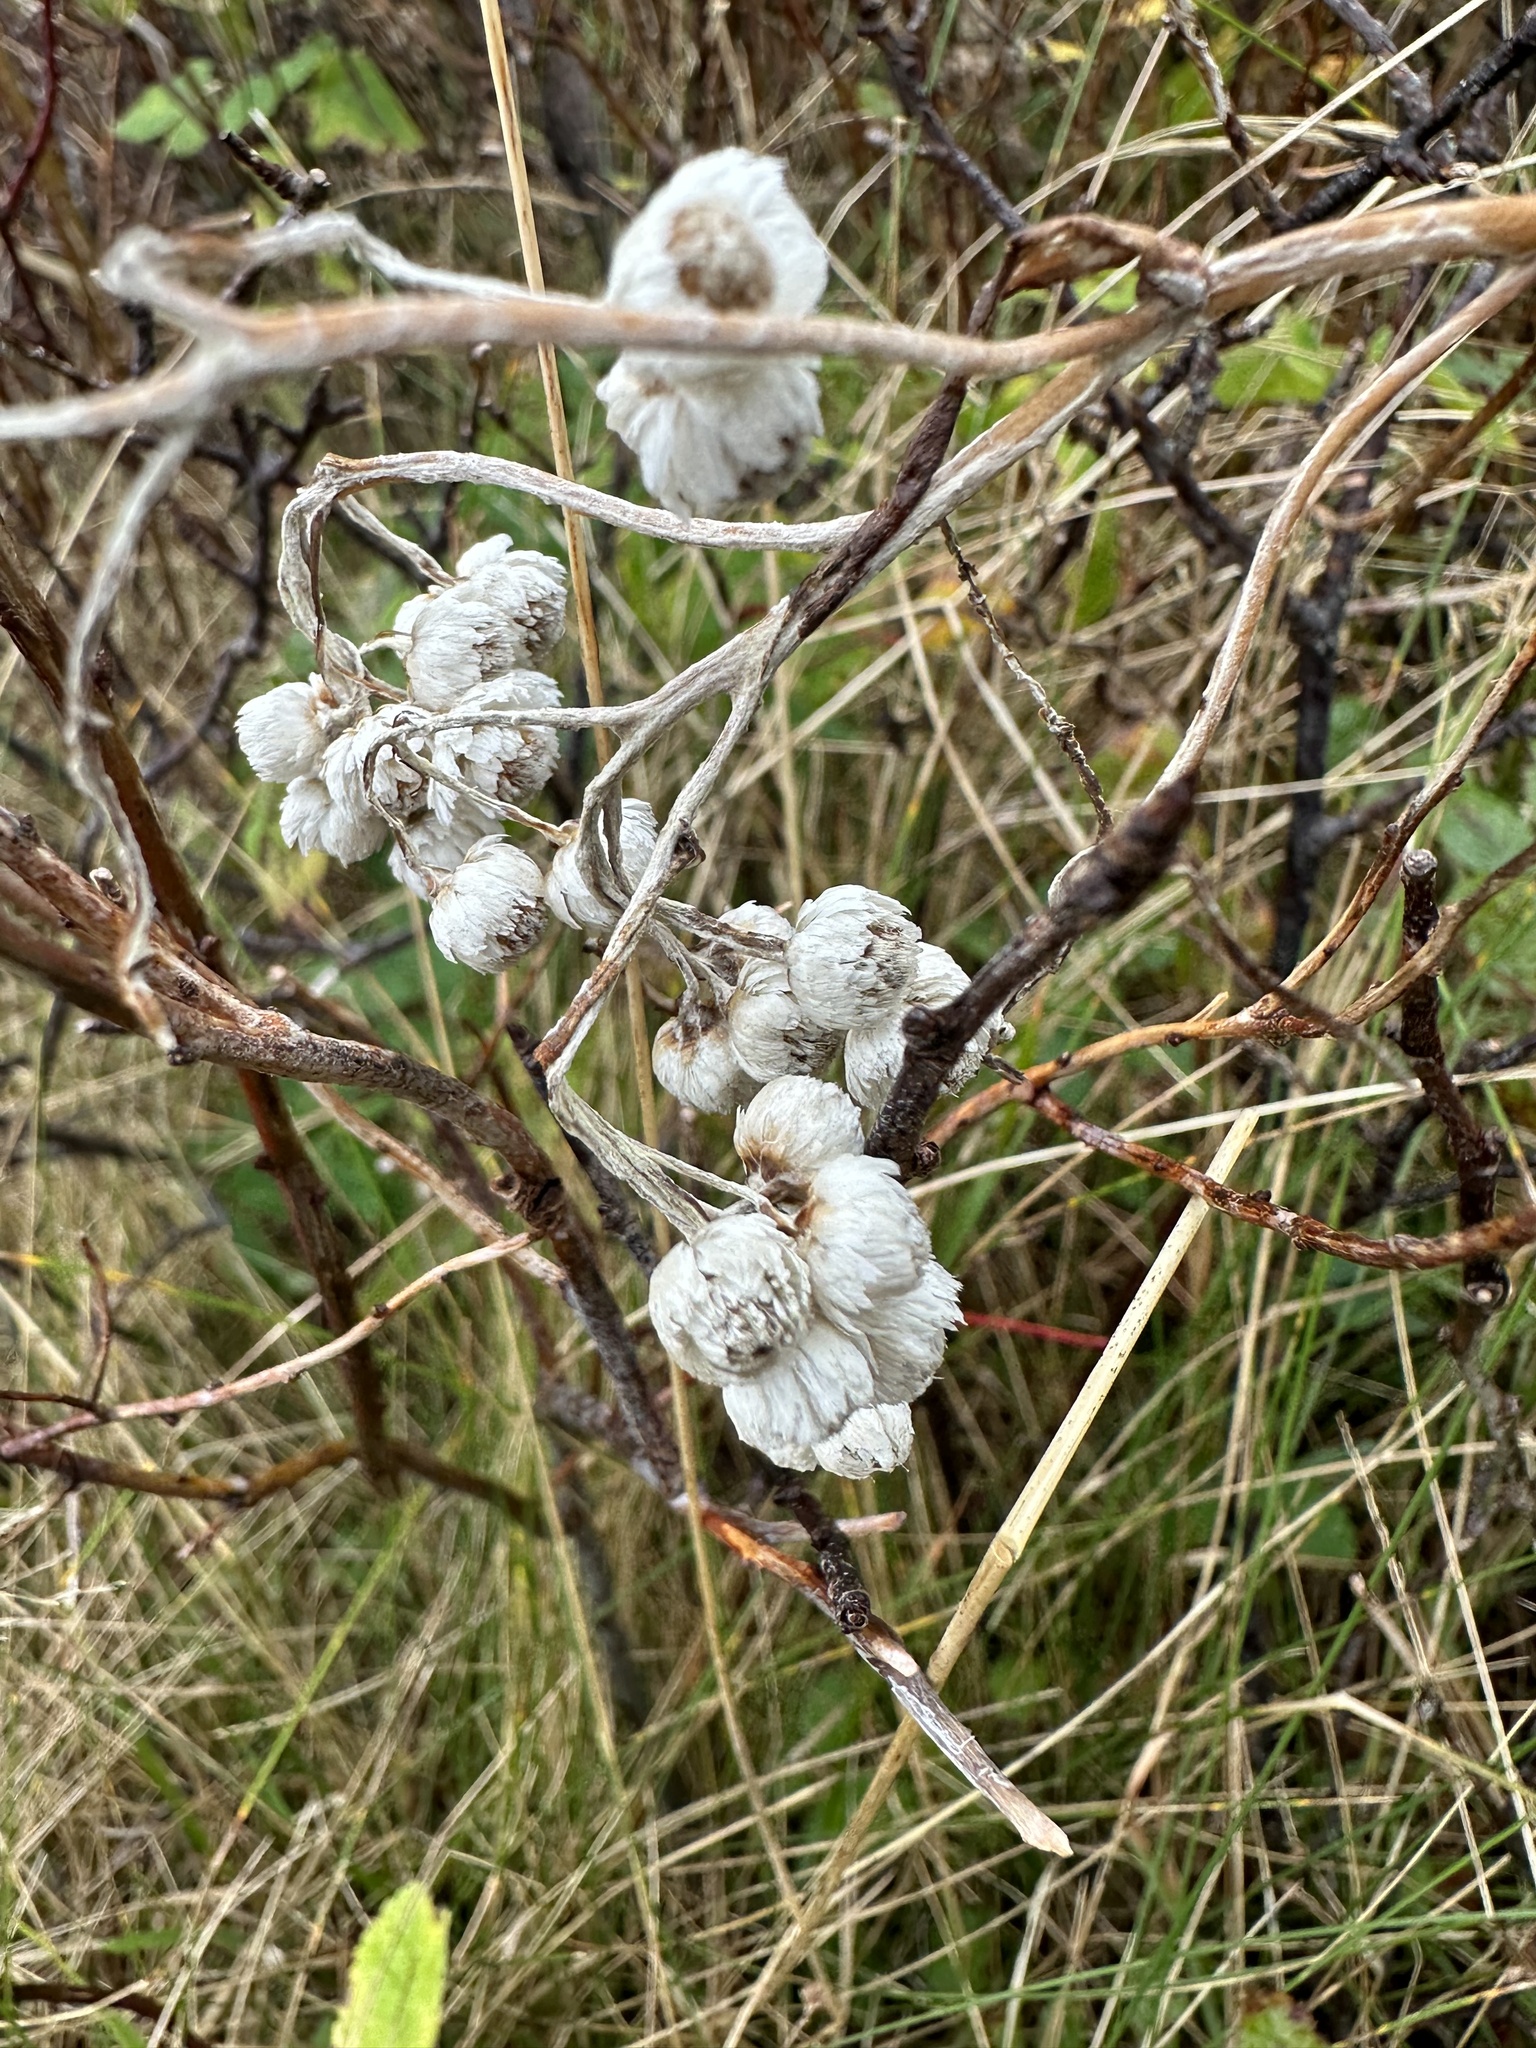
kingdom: Plantae
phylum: Tracheophyta
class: Magnoliopsida
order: Asterales
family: Asteraceae
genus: Anaphalis
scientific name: Anaphalis margaritacea
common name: Pearly everlasting
